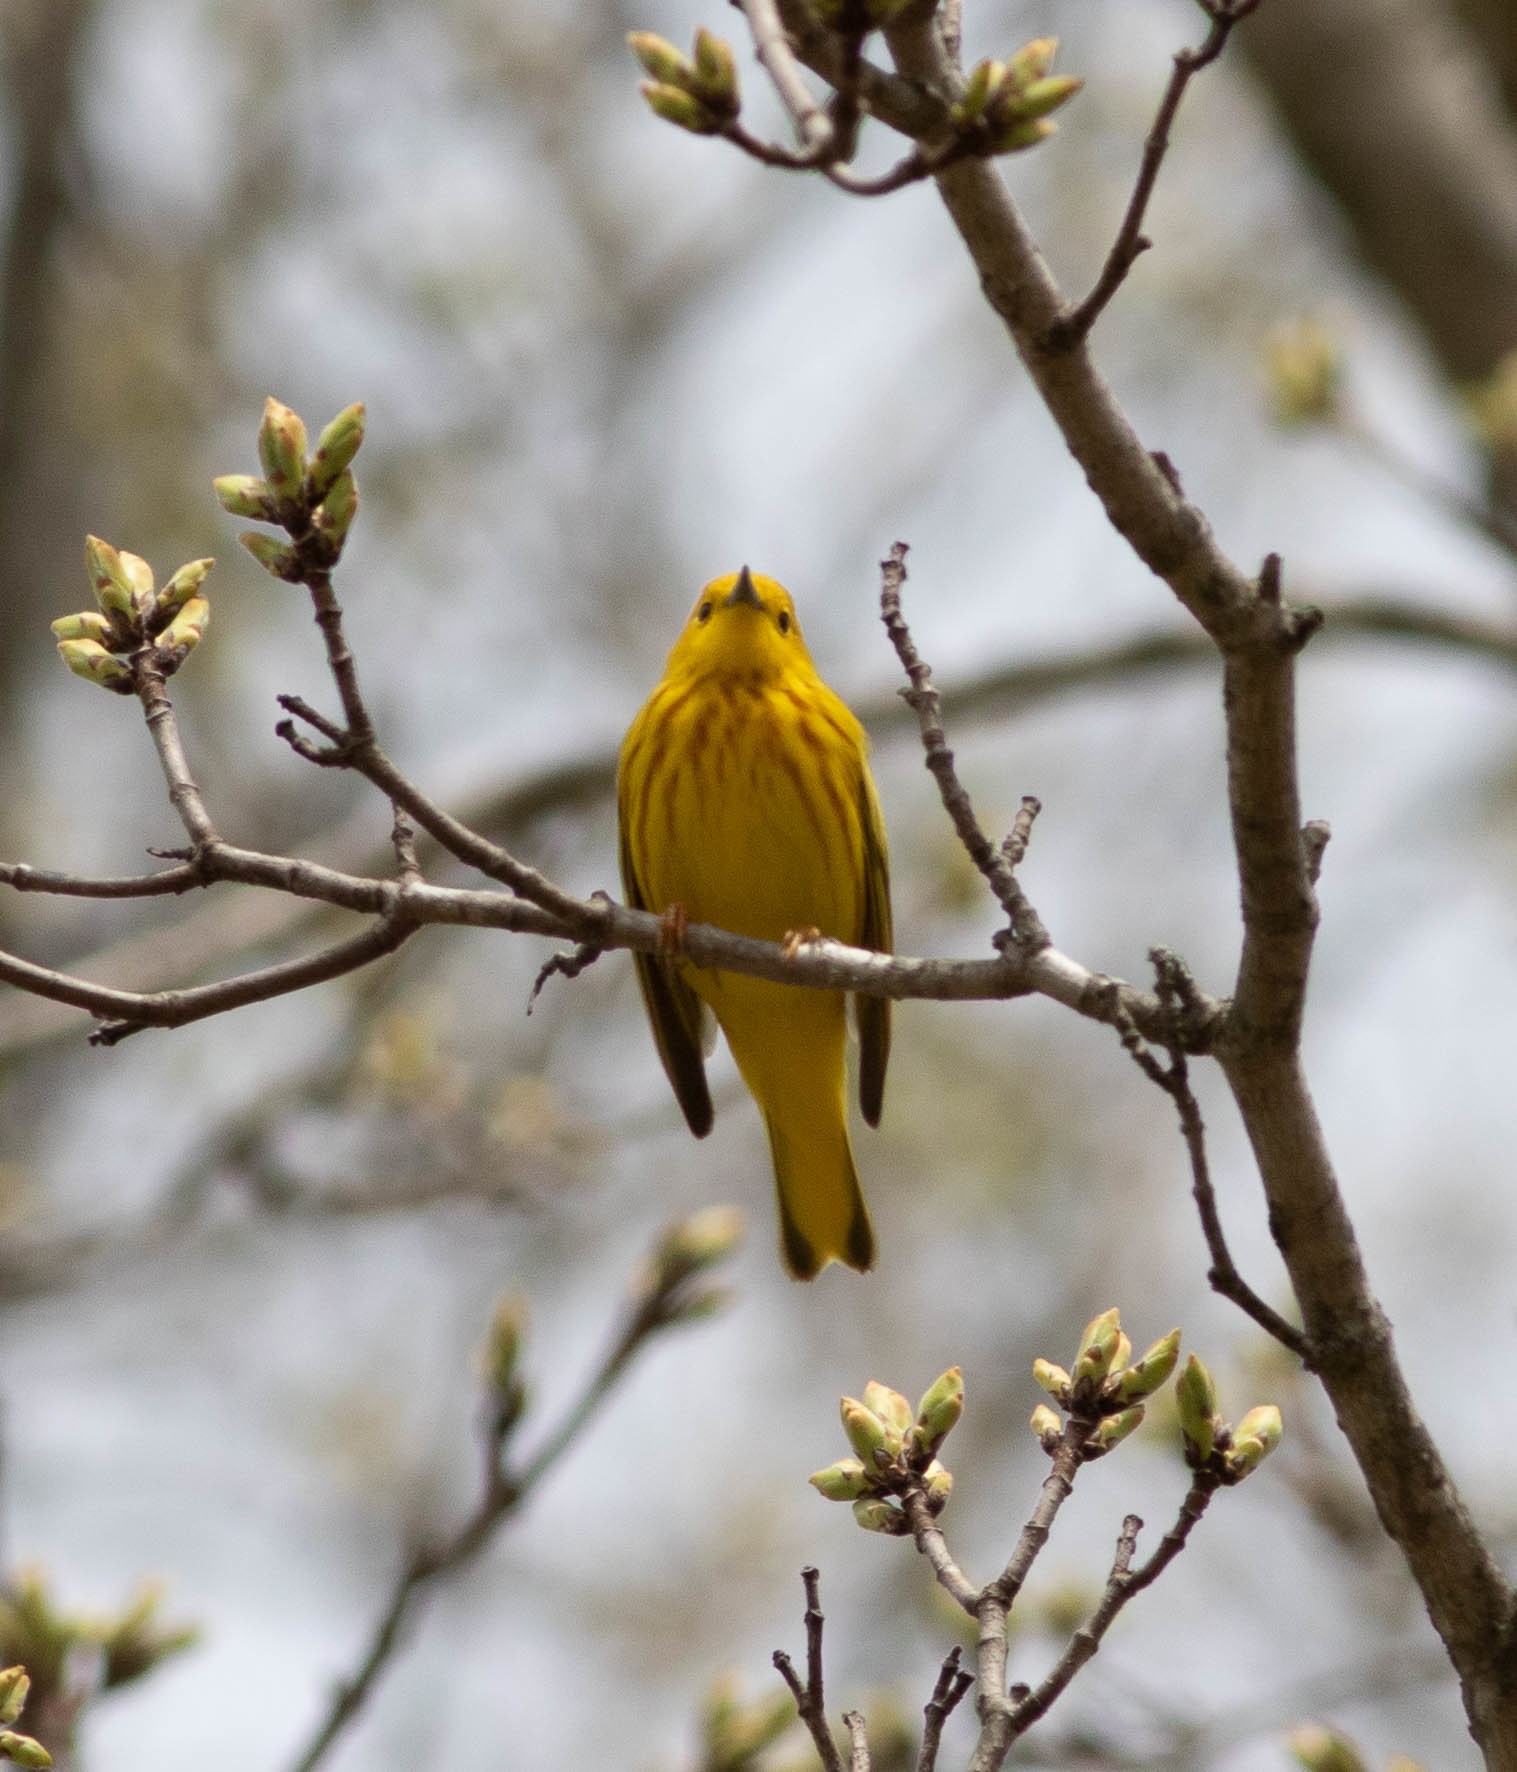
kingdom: Animalia
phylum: Chordata
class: Aves
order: Passeriformes
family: Parulidae
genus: Setophaga
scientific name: Setophaga petechia
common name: Yellow warbler
